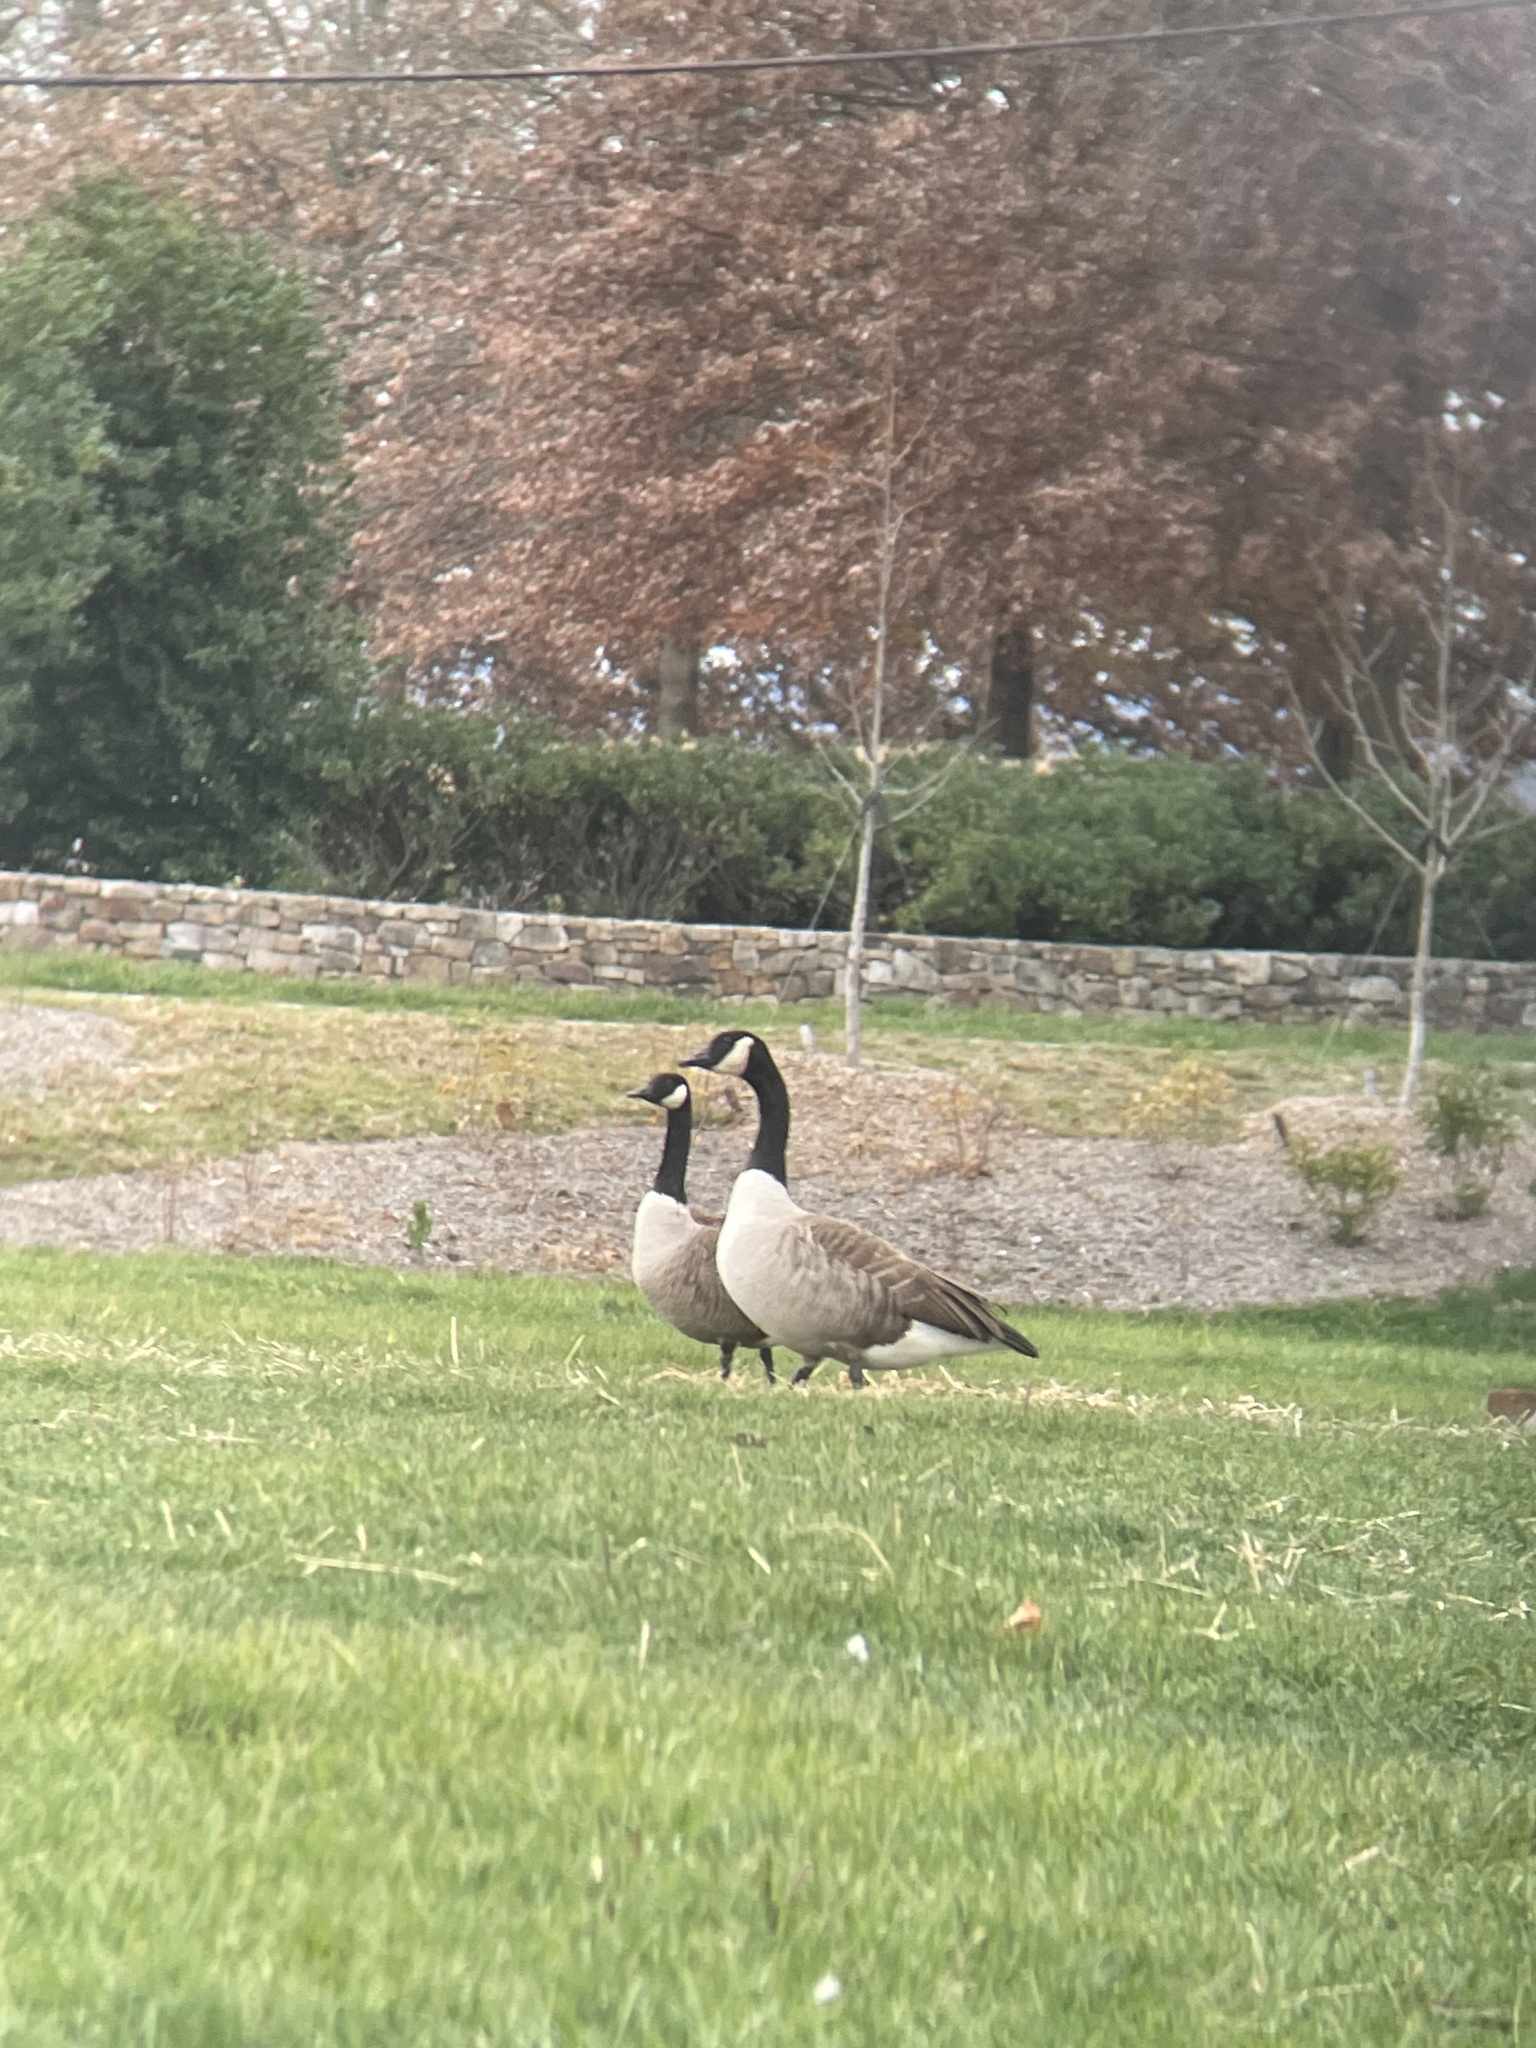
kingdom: Animalia
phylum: Chordata
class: Aves
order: Anseriformes
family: Anatidae
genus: Branta
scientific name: Branta canadensis
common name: Canada goose
